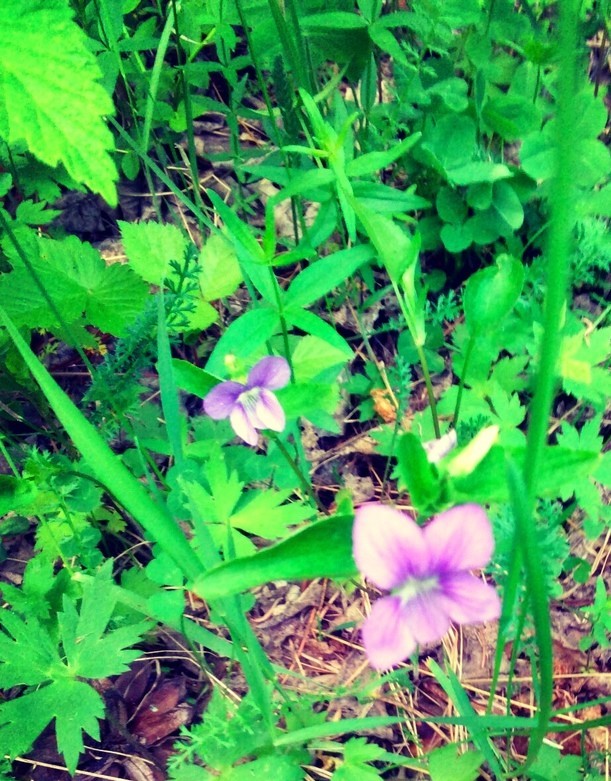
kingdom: Plantae
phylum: Tracheophyta
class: Magnoliopsida
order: Malpighiales
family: Violaceae
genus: Viola
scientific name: Viola
